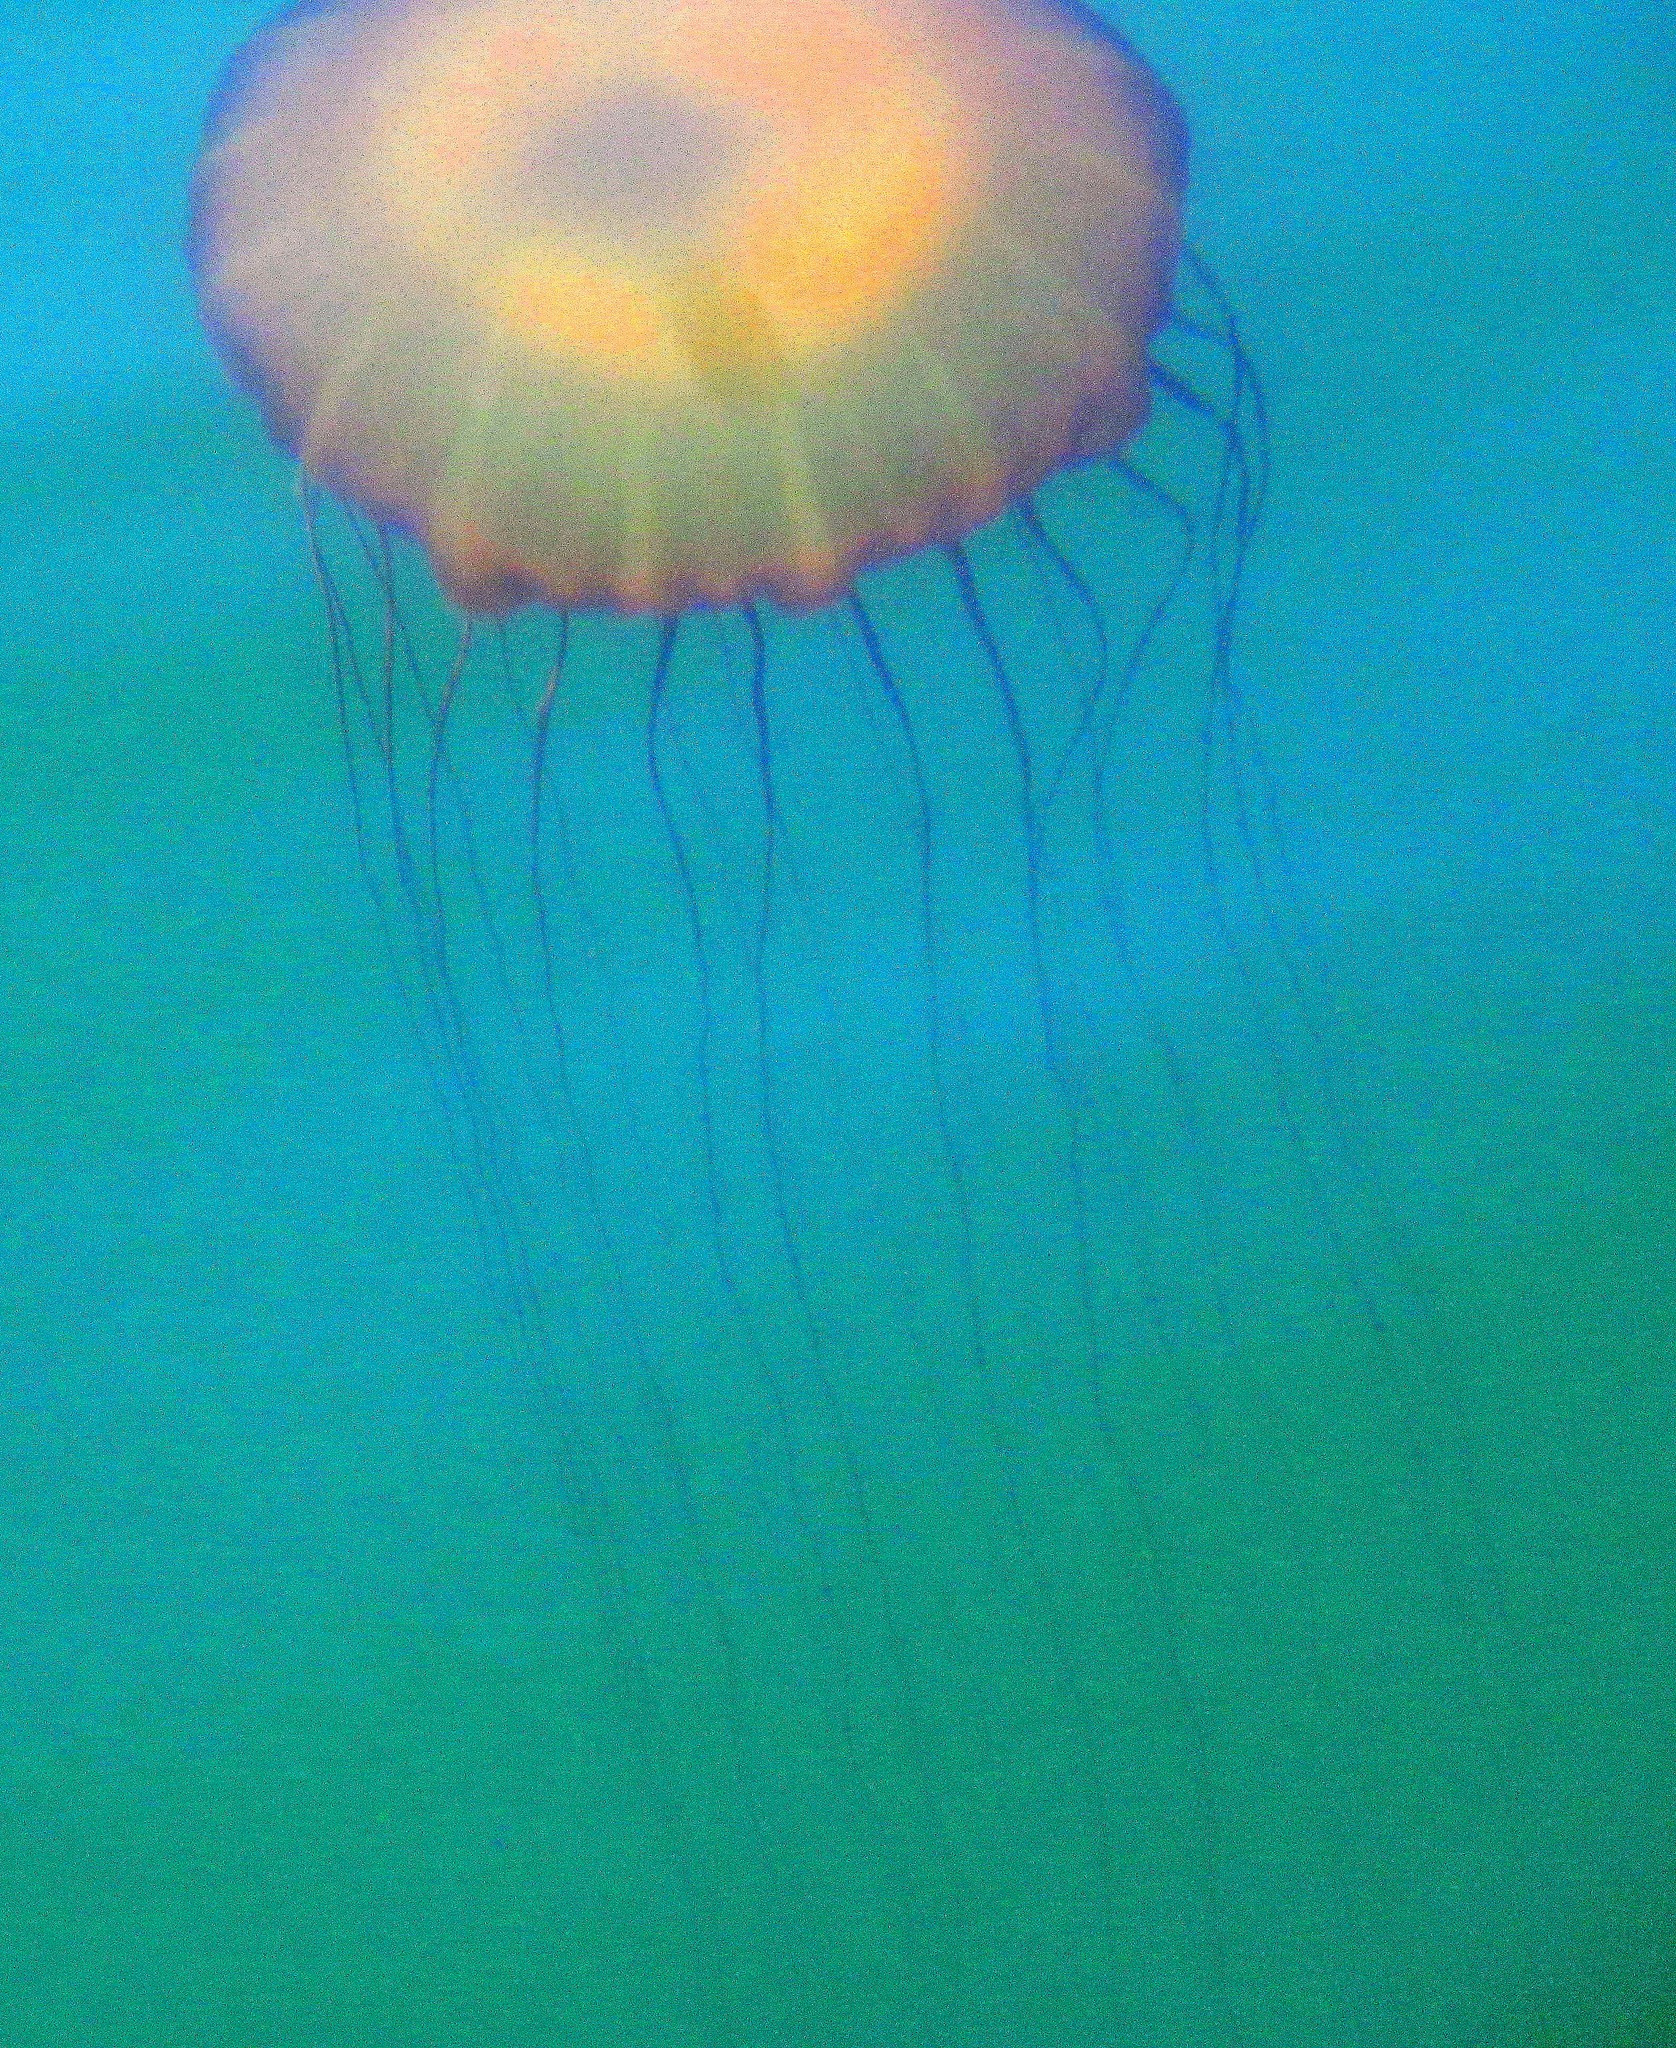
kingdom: Animalia
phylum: Cnidaria
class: Scyphozoa
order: Semaeostomeae
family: Pelagiidae
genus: Chrysaora
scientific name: Chrysaora fuscescens
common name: Sea nettle
